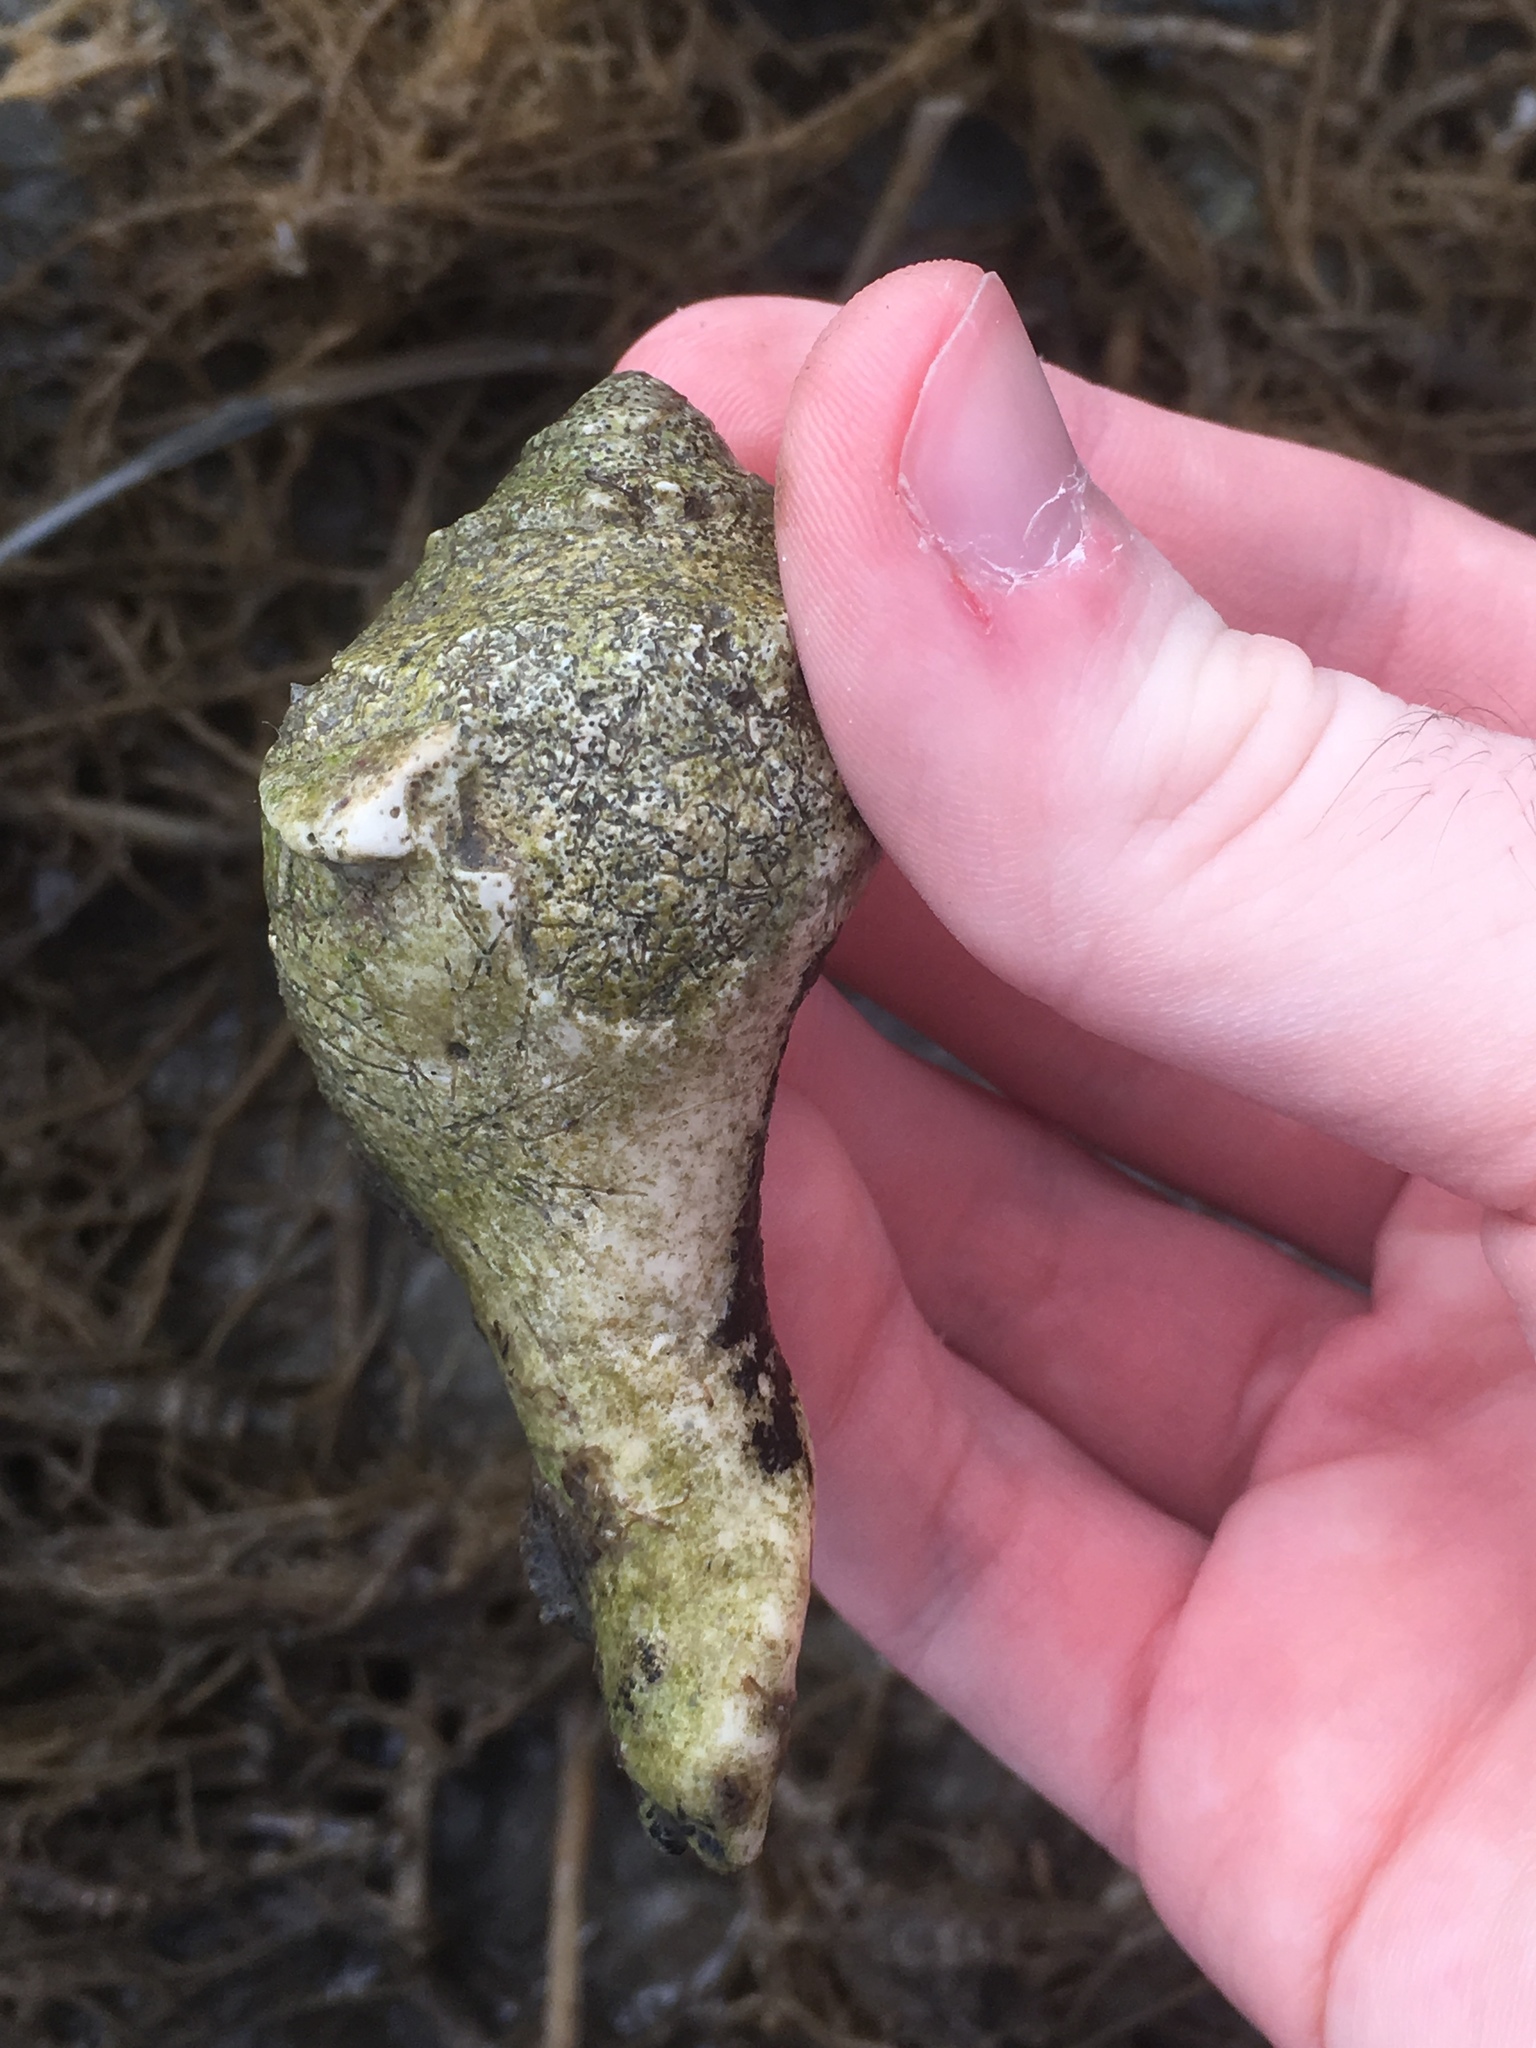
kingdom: Animalia
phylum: Mollusca
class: Gastropoda
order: Neogastropoda
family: Busyconidae
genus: Busycon
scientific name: Busycon carica
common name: Knobbed whelk
